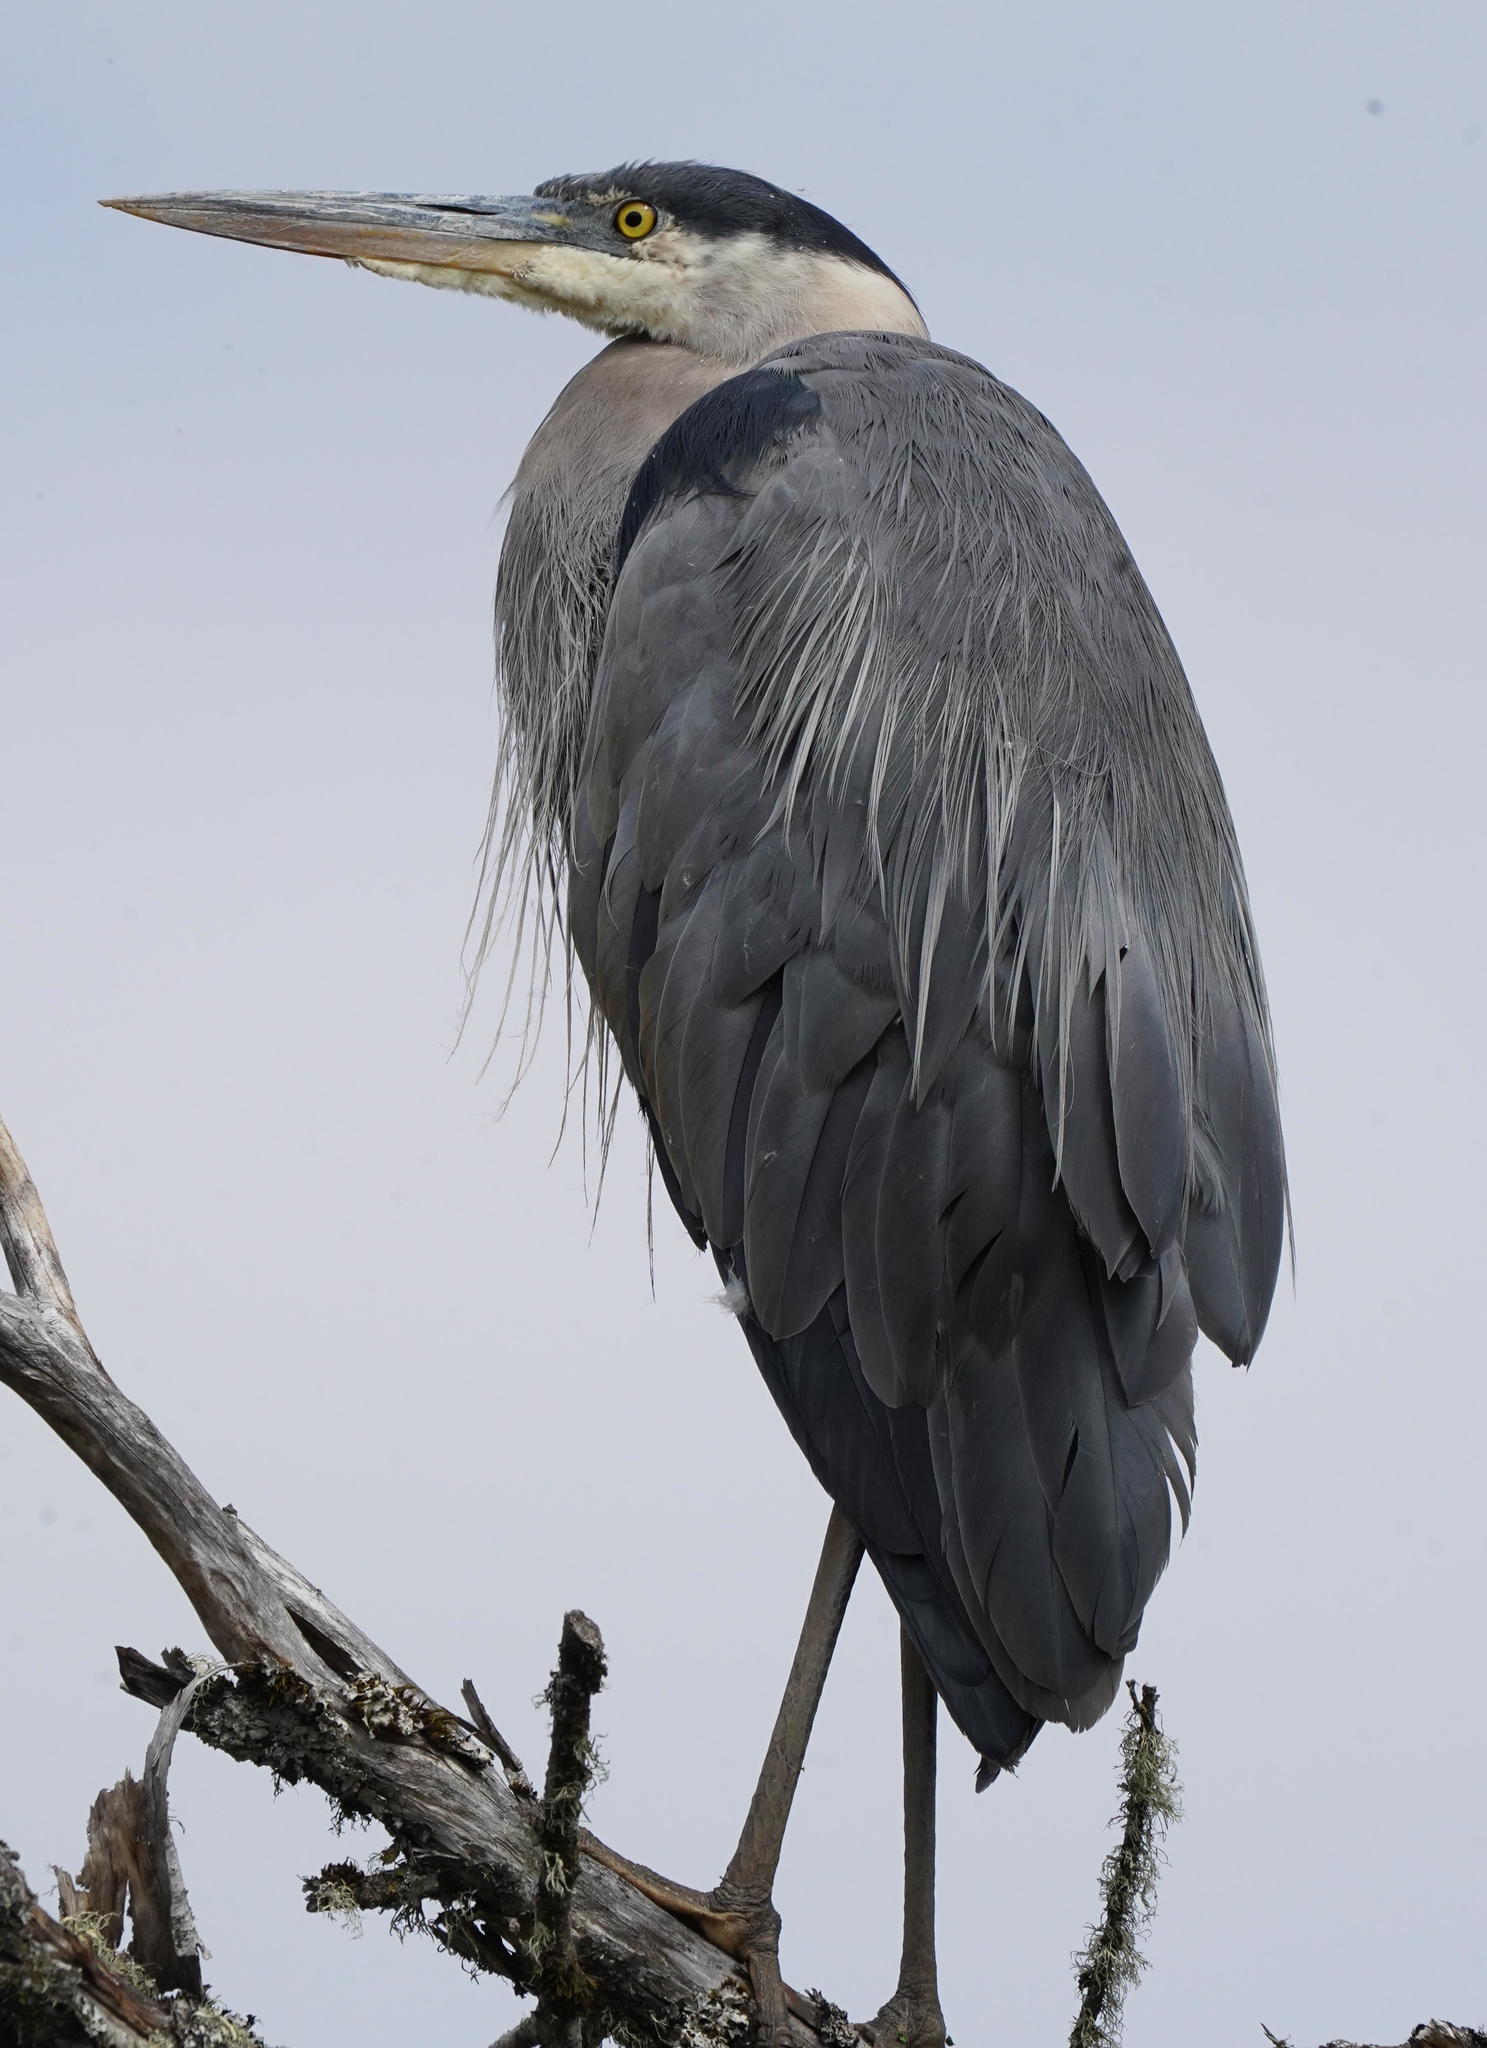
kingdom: Animalia
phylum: Chordata
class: Aves
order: Pelecaniformes
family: Ardeidae
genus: Ardea
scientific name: Ardea herodias
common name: Great blue heron
